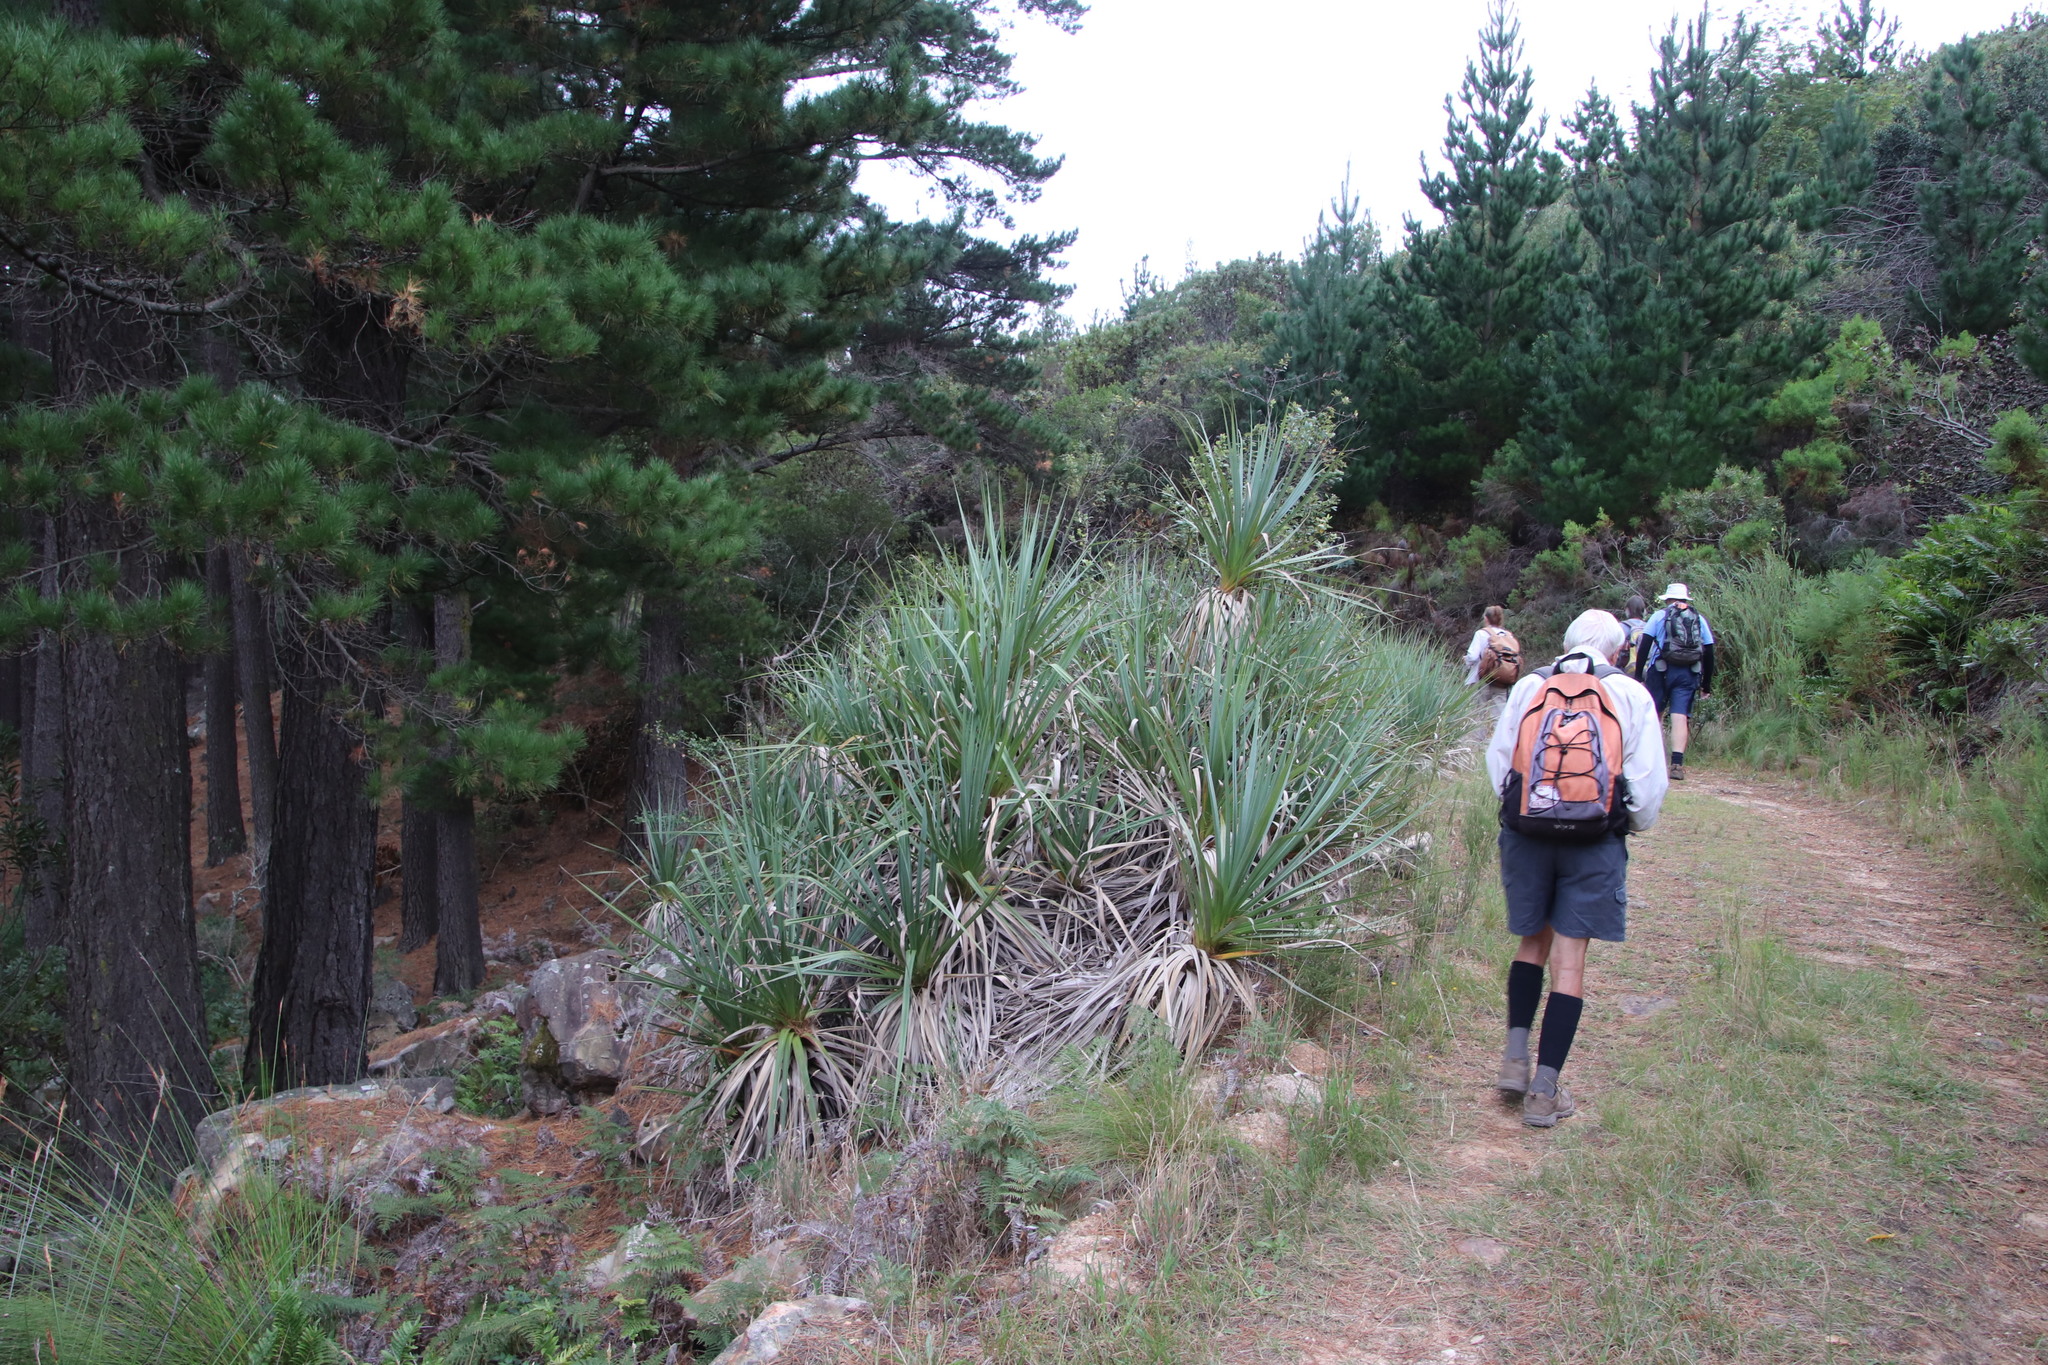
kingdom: Plantae
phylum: Tracheophyta
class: Liliopsida
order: Poales
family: Thurniaceae
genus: Prionium
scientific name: Prionium serratum
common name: Palmiet
